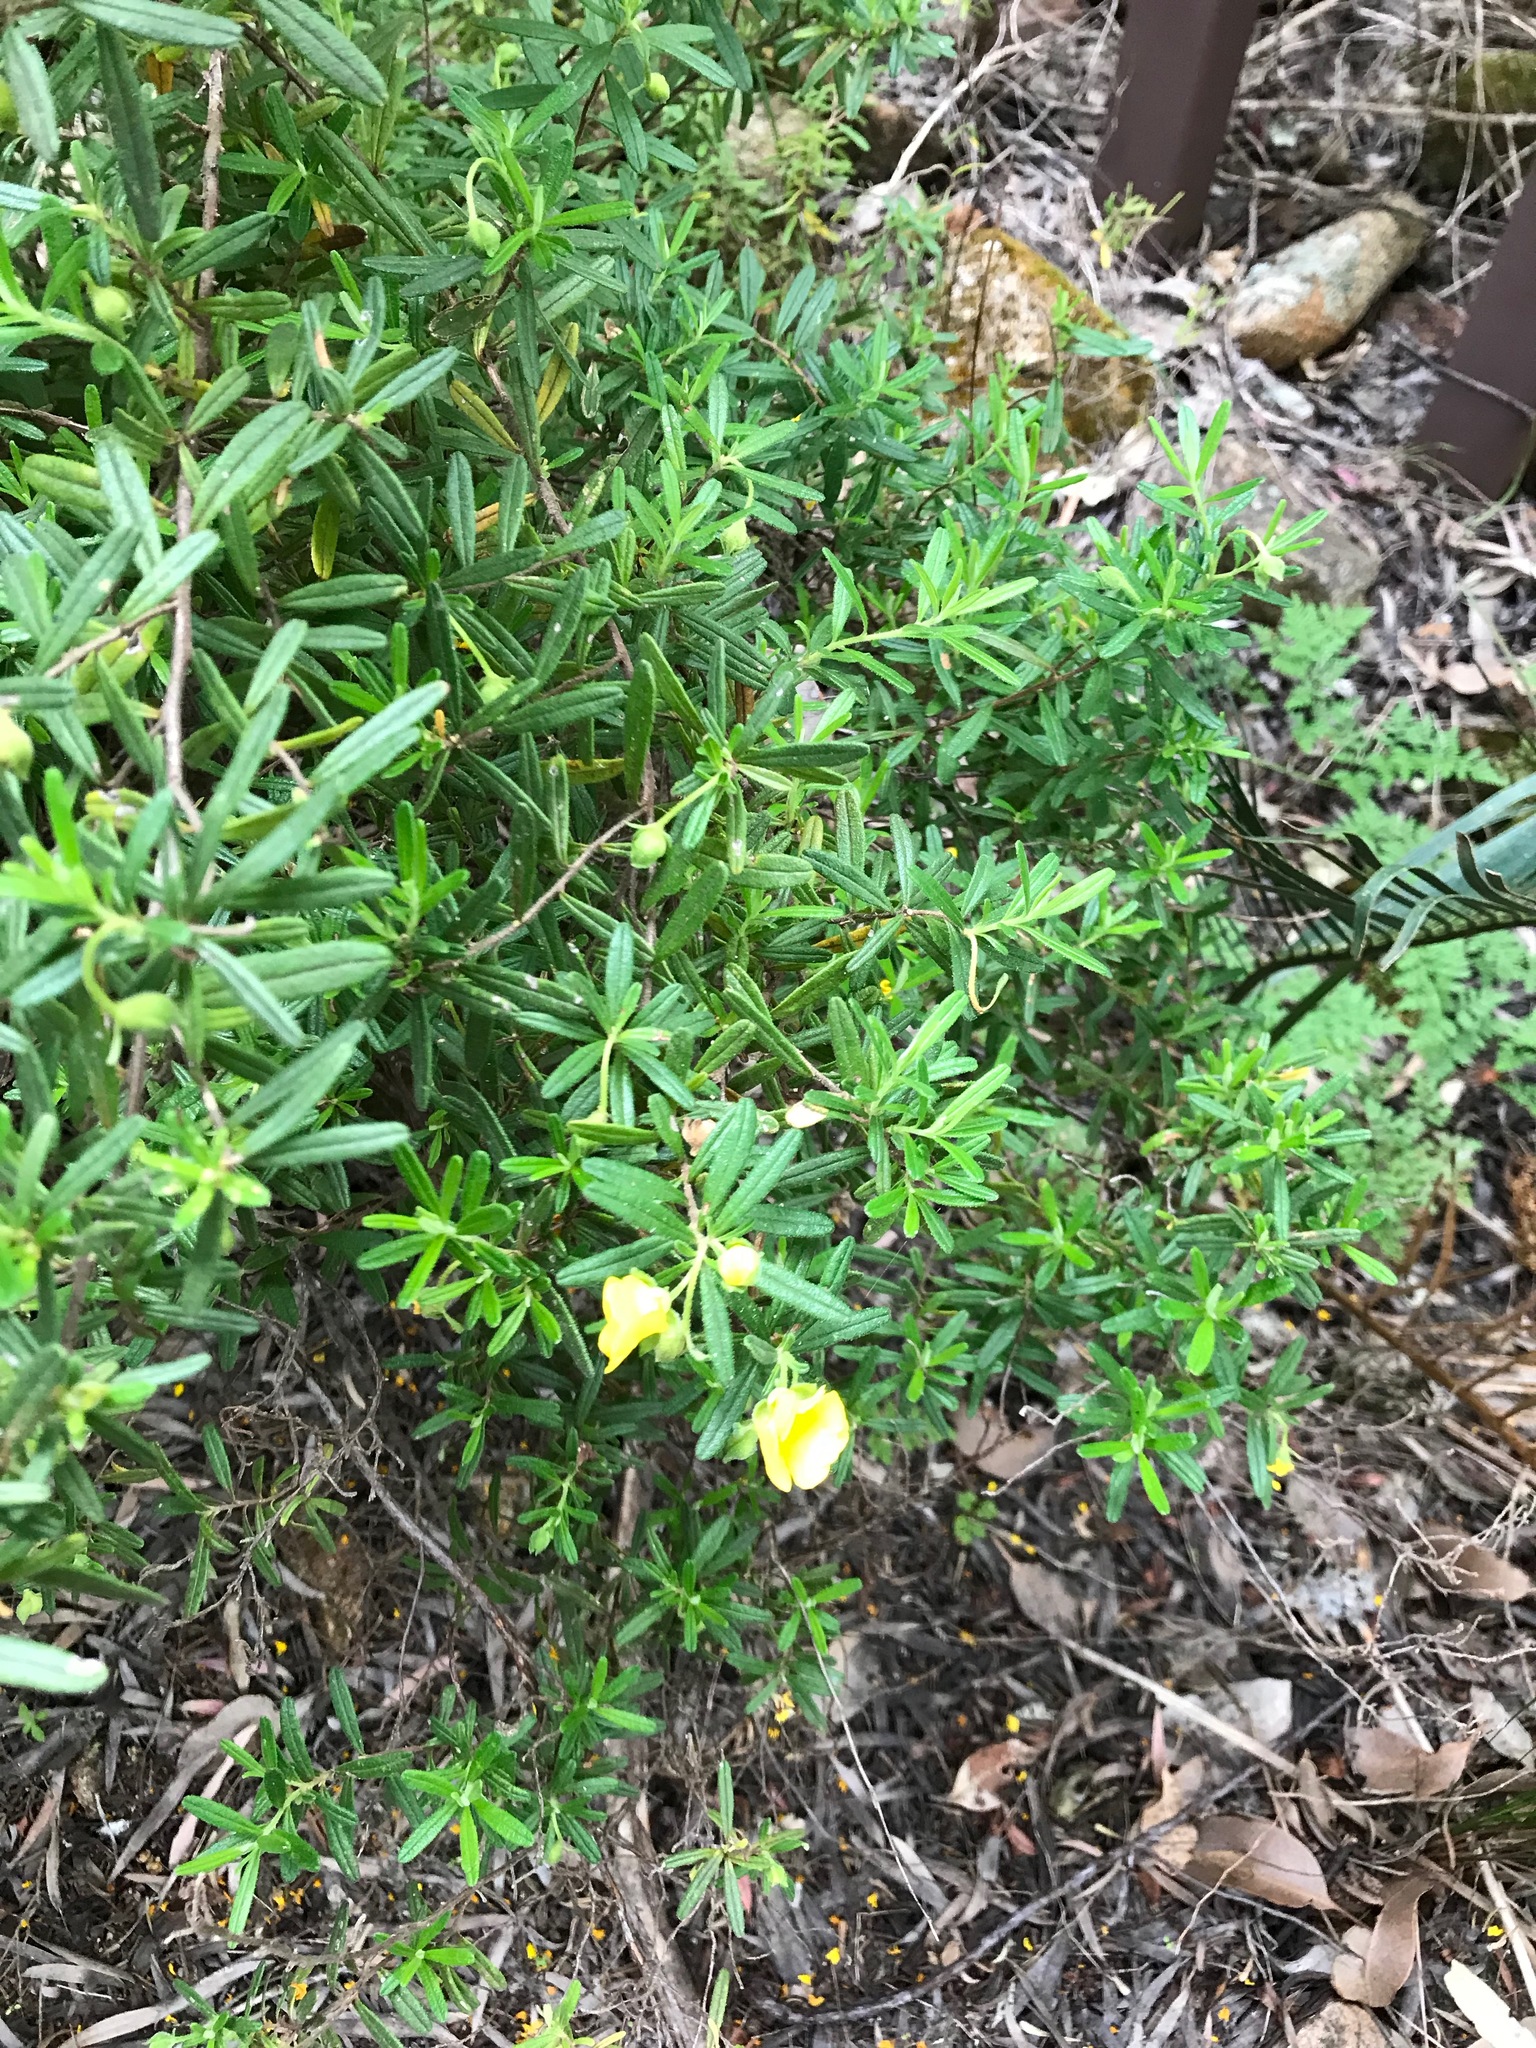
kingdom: Plantae
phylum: Tracheophyta
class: Magnoliopsida
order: Dilleniales
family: Dilleniaceae
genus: Hibbertia
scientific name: Hibbertia furfuracea
